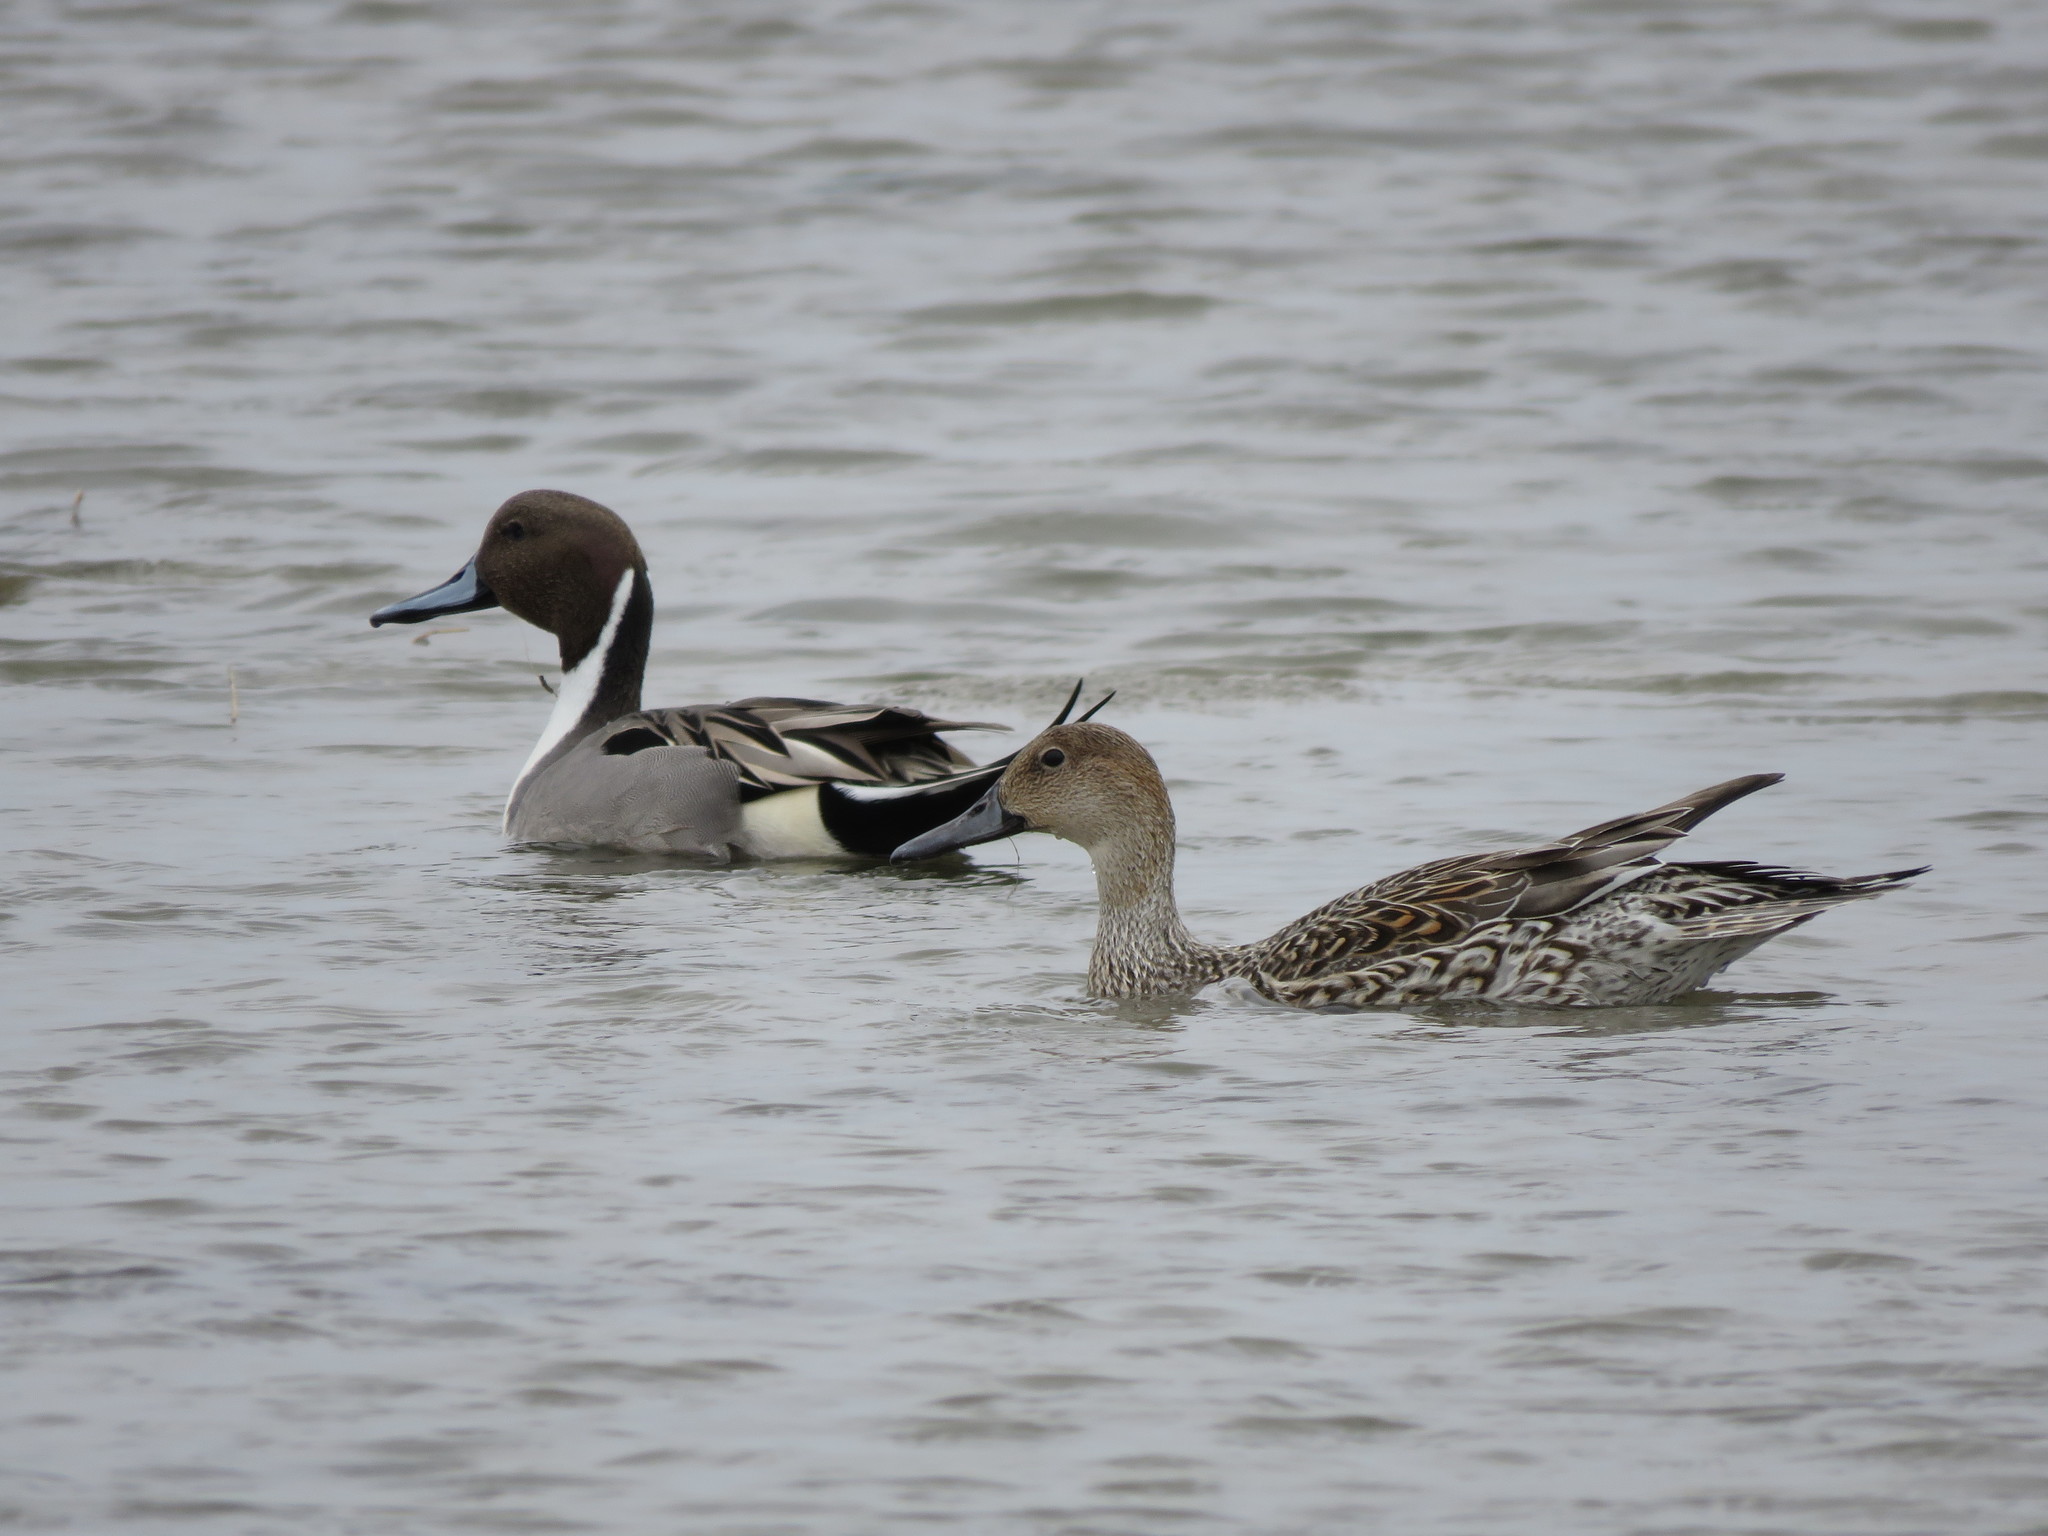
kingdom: Animalia
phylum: Chordata
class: Aves
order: Anseriformes
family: Anatidae
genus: Anas
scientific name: Anas acuta
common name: Northern pintail
